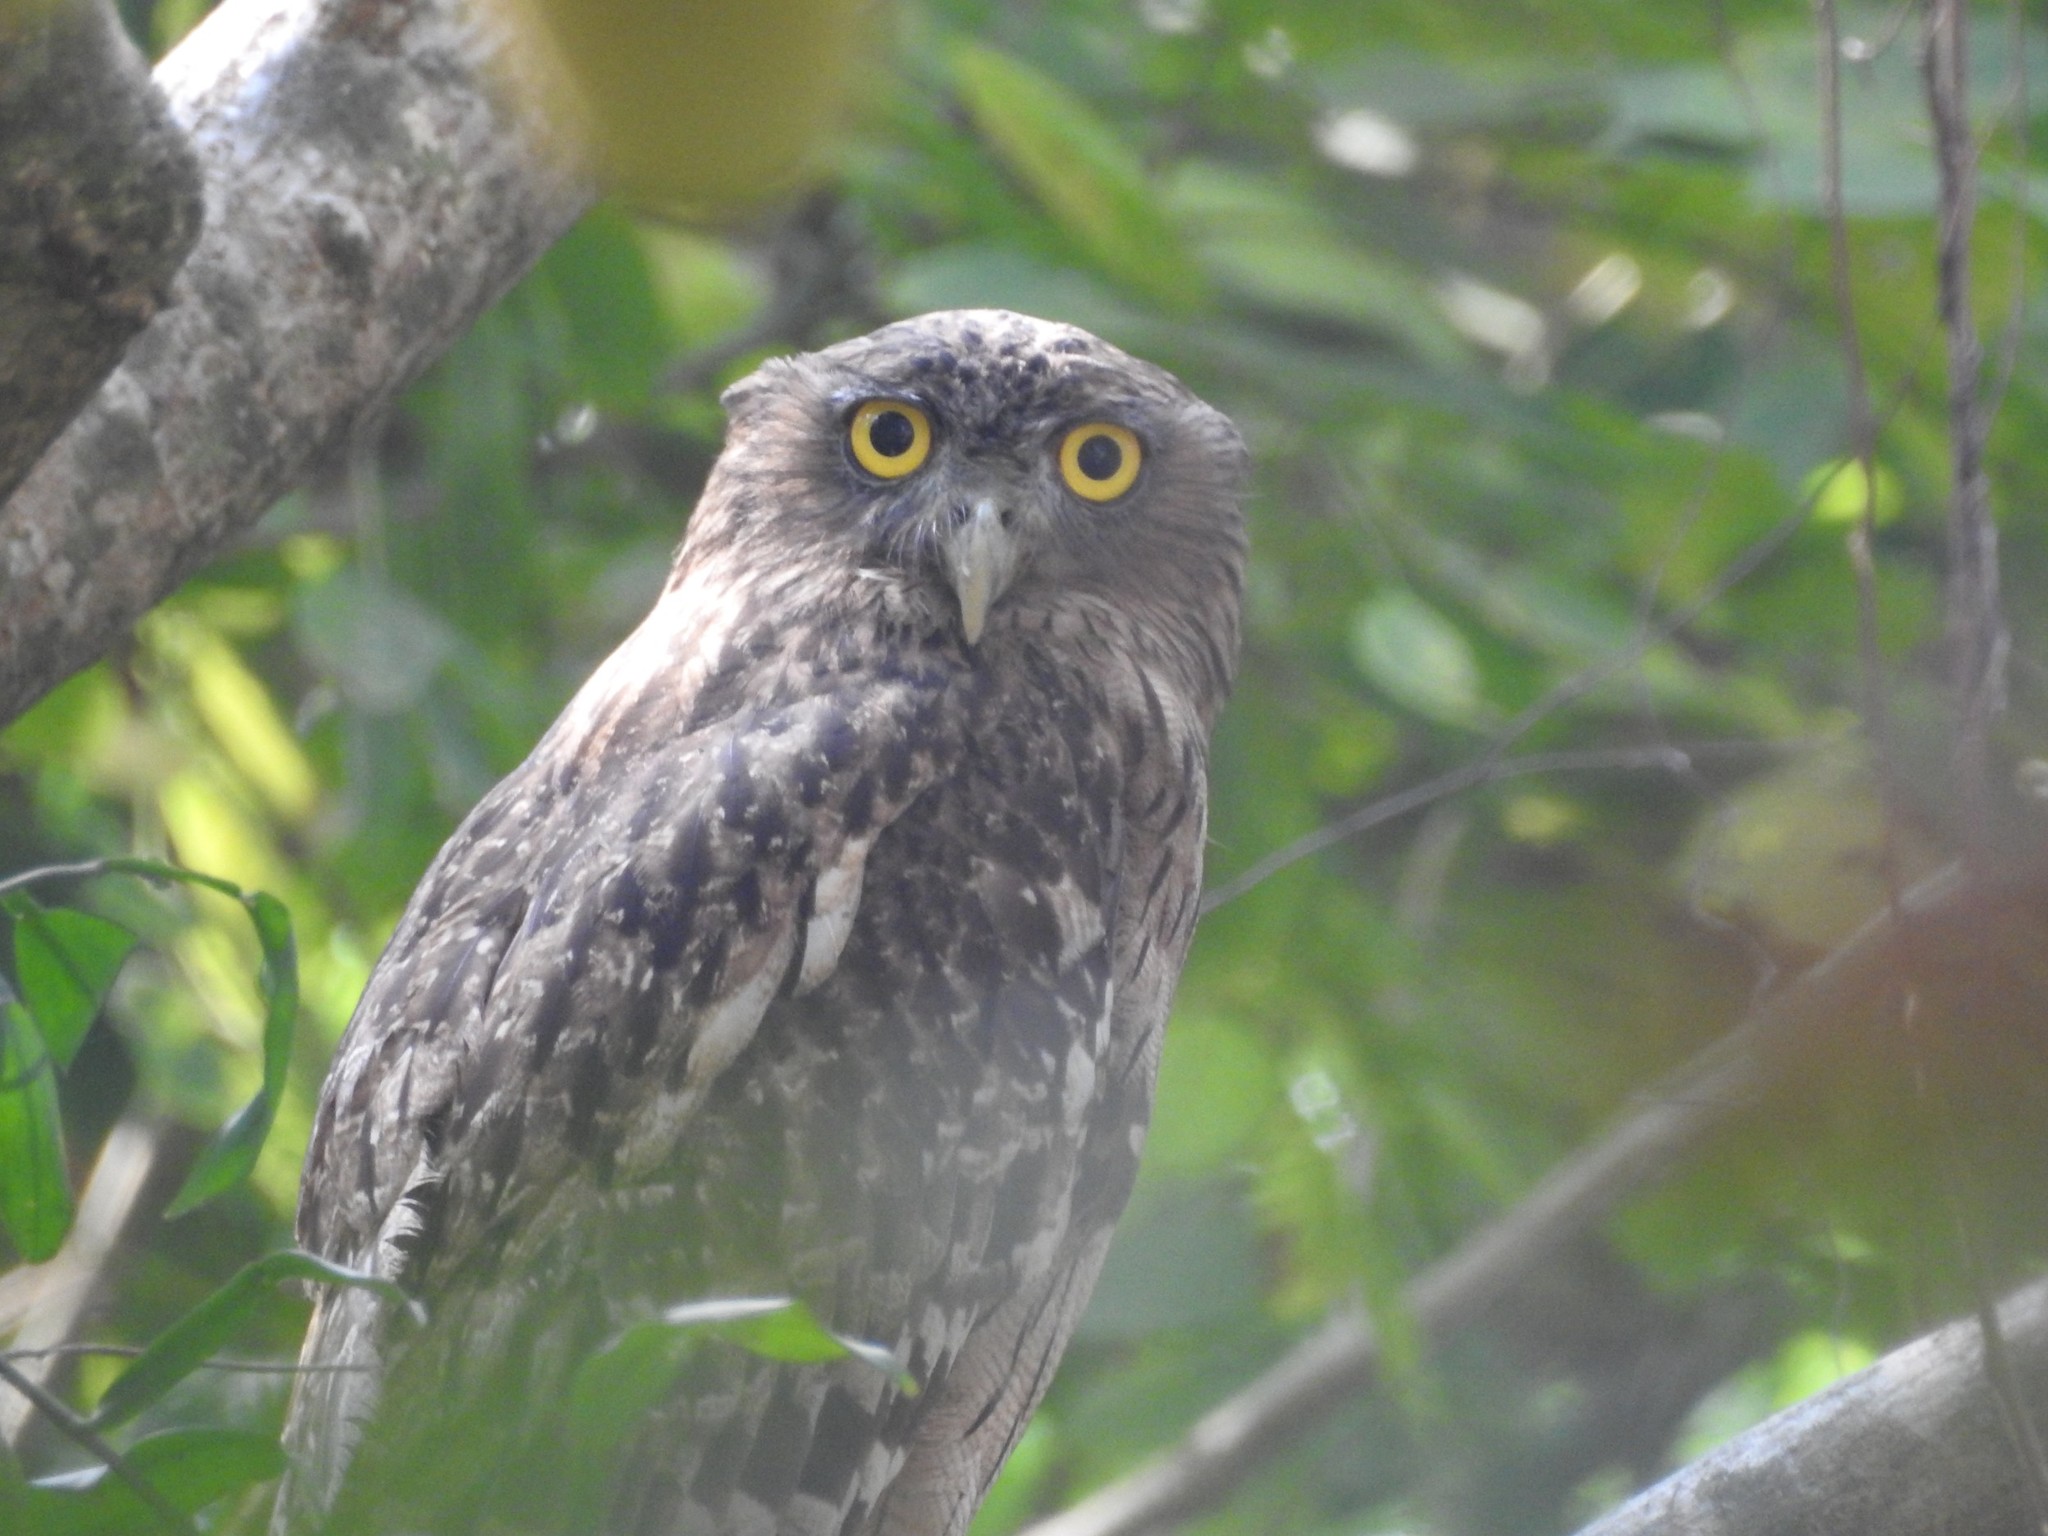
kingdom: Animalia
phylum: Chordata
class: Aves
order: Strigiformes
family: Strigidae
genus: Ketupa
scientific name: Ketupa zeylonensis
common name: Brown fish owl
